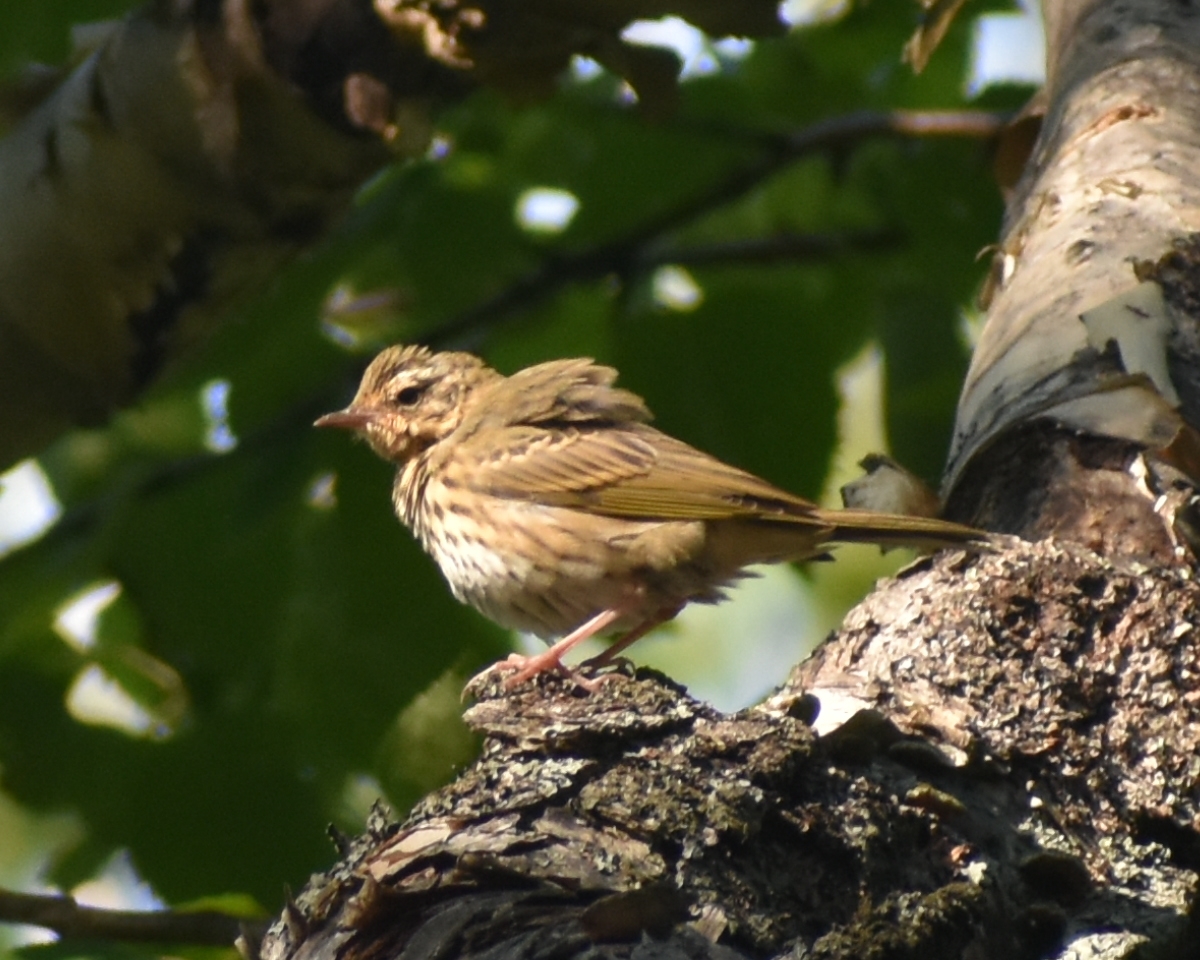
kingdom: Animalia
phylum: Chordata
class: Aves
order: Passeriformes
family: Motacillidae
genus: Anthus
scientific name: Anthus hodgsoni
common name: Olive-backed pipit
